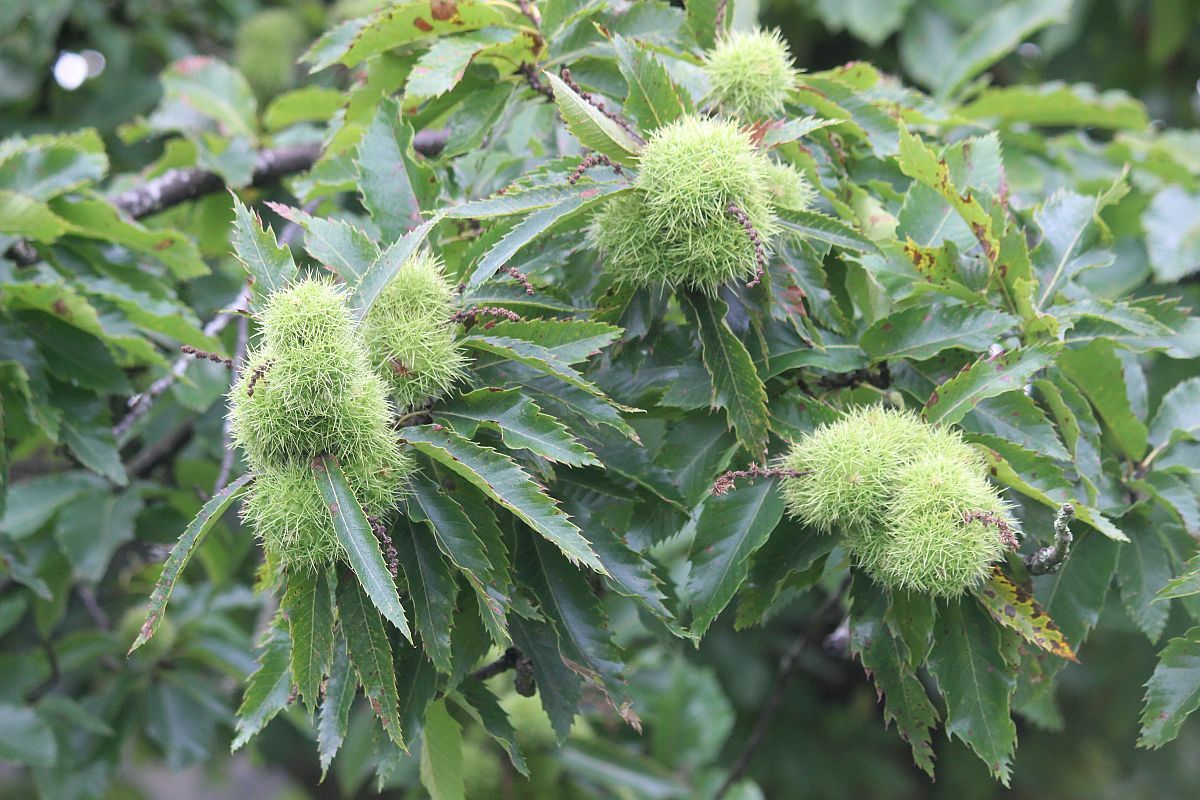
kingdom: Plantae
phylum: Tracheophyta
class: Magnoliopsida
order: Fagales
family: Fagaceae
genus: Castanea
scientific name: Castanea sativa
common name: Sweet chestnut
